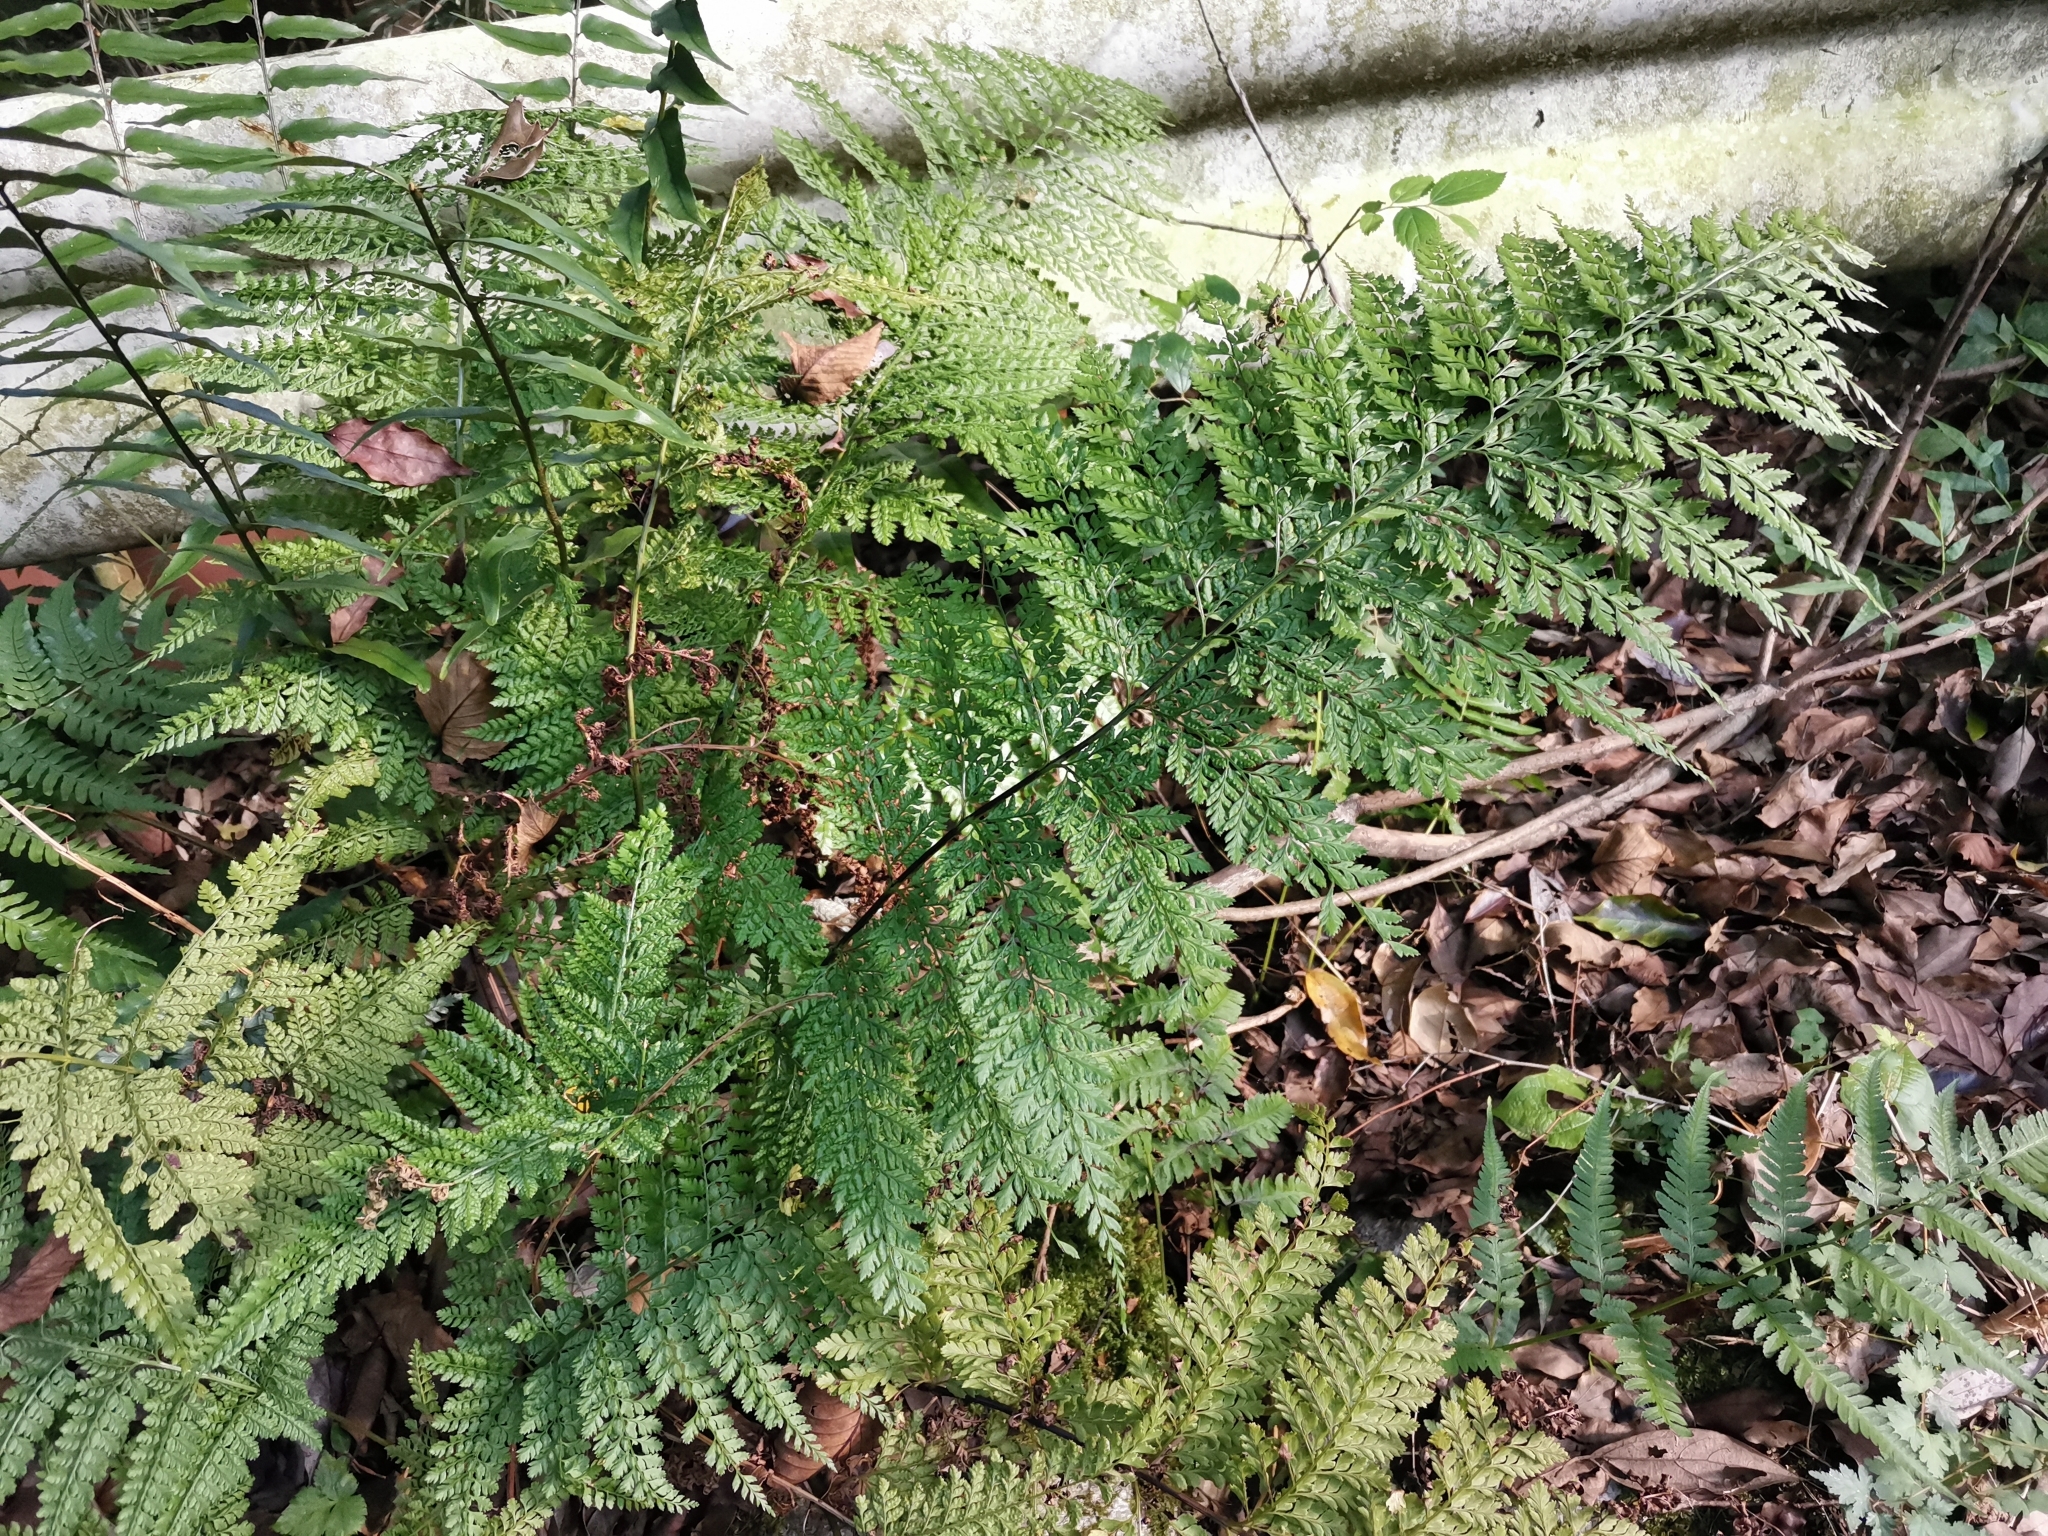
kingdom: Plantae
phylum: Tracheophyta
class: Polypodiopsida
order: Polypodiales
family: Dryopteridaceae
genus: Arachniodes
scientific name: Arachniodes standishii
